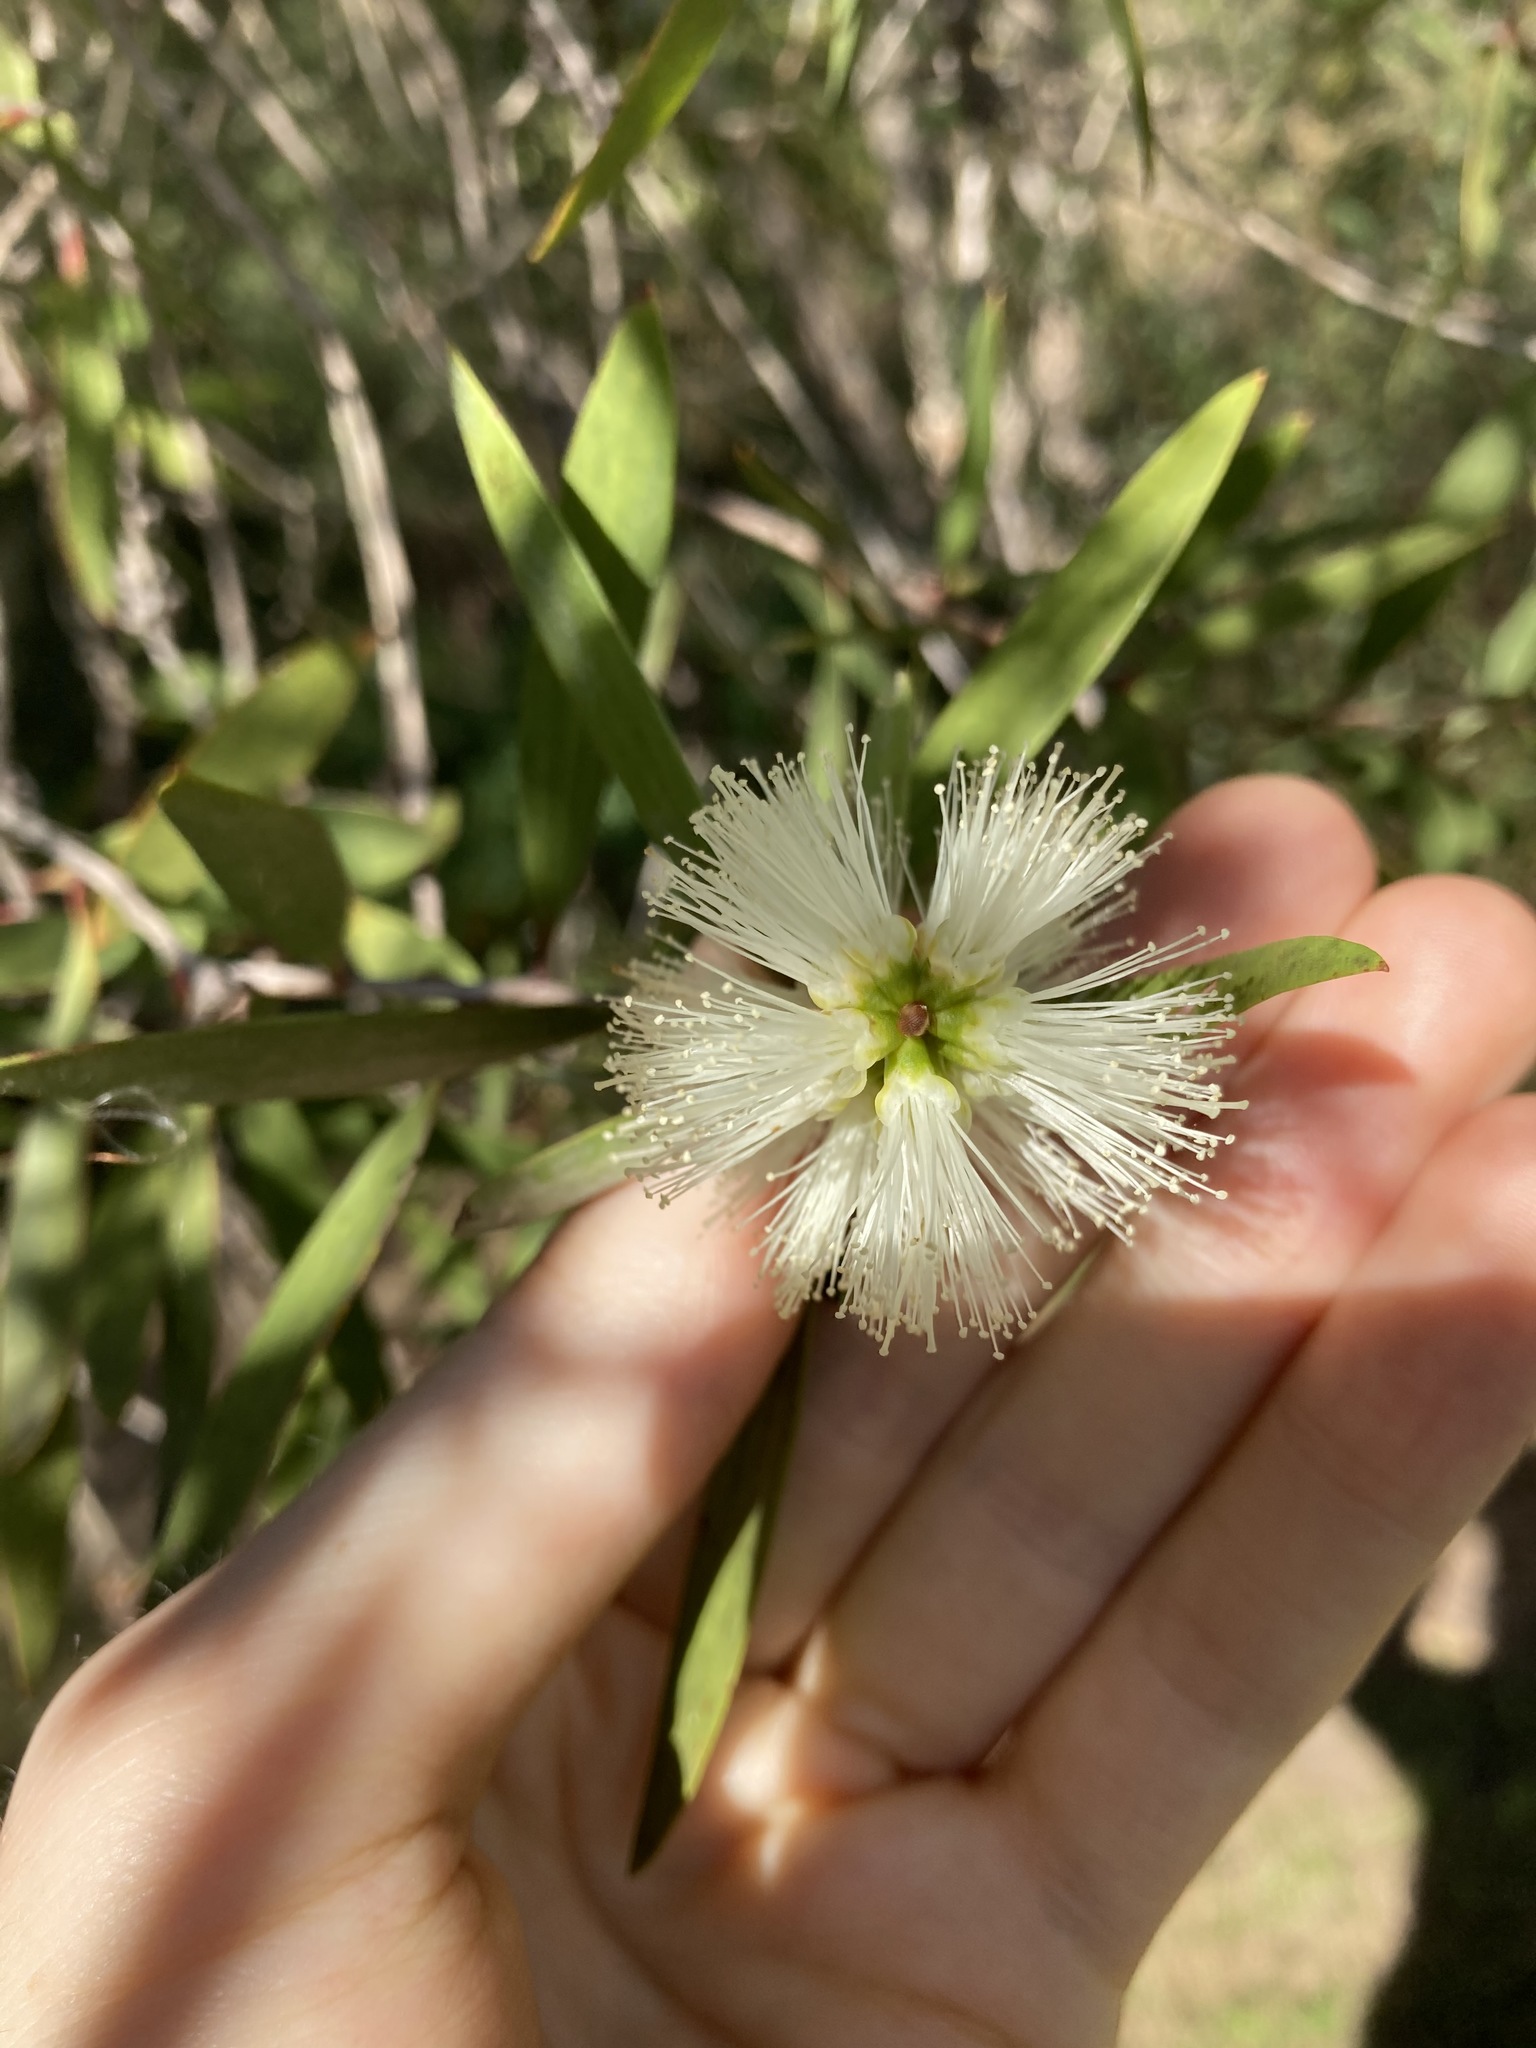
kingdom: Plantae
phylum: Tracheophyta
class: Magnoliopsida
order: Myrtales
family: Myrtaceae
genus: Melaleuca
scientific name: Melaleuca quinquenervia
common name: Punktree
